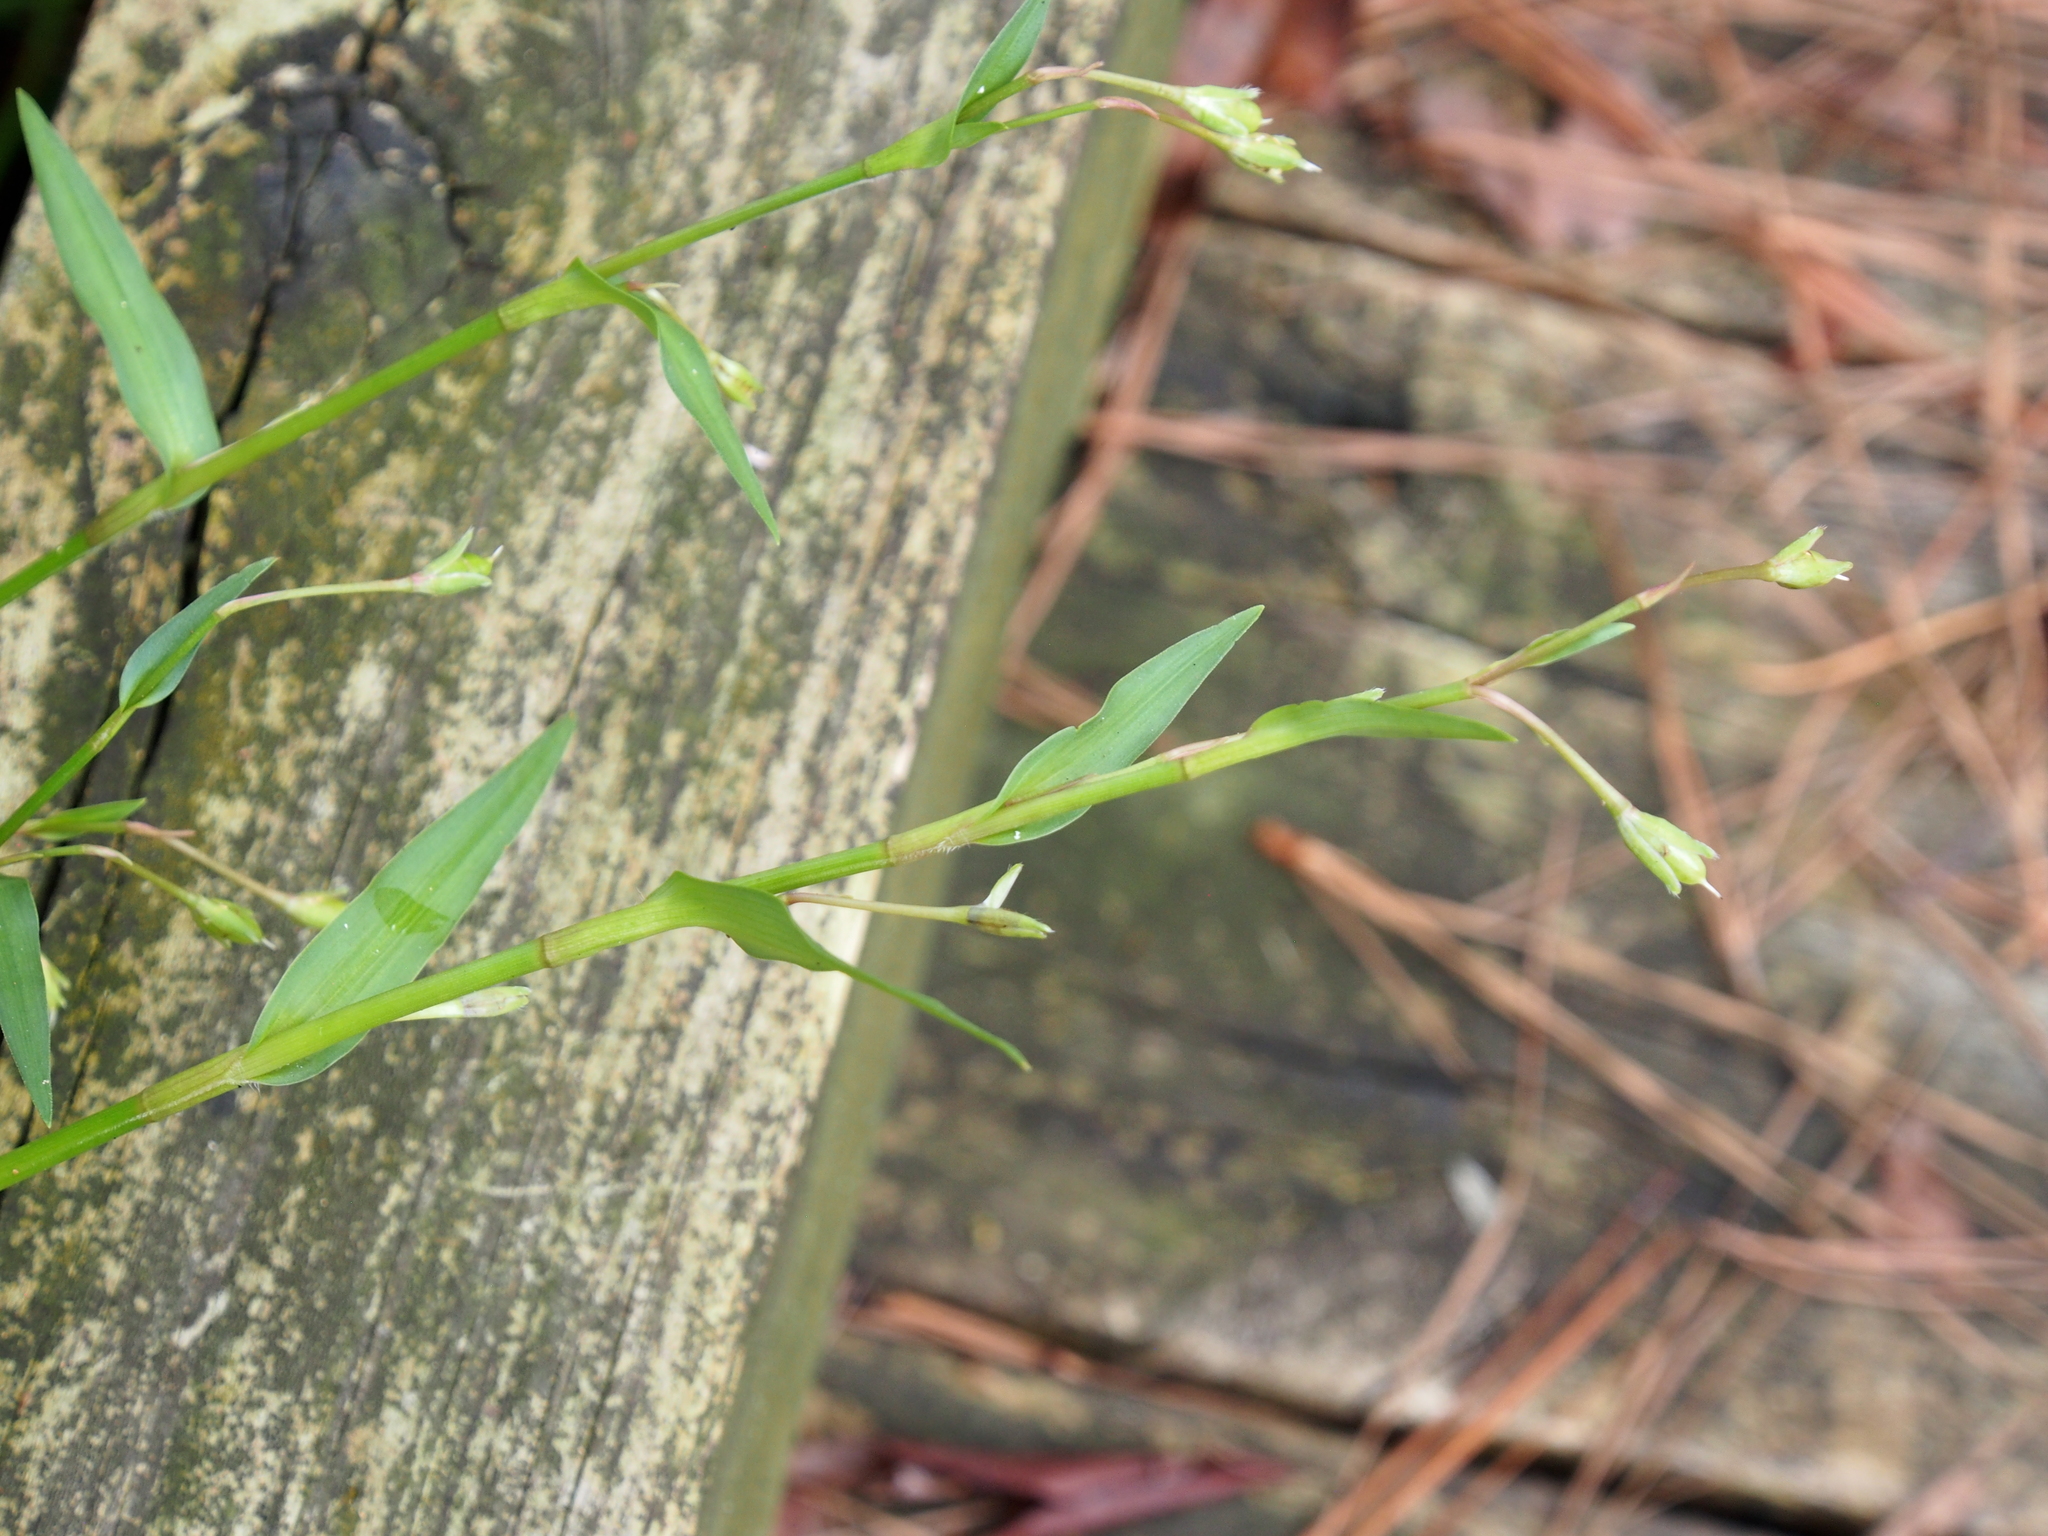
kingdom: Plantae
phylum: Tracheophyta
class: Liliopsida
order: Commelinales
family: Commelinaceae
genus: Murdannia
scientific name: Murdannia keisak
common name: Wartremoving herb
